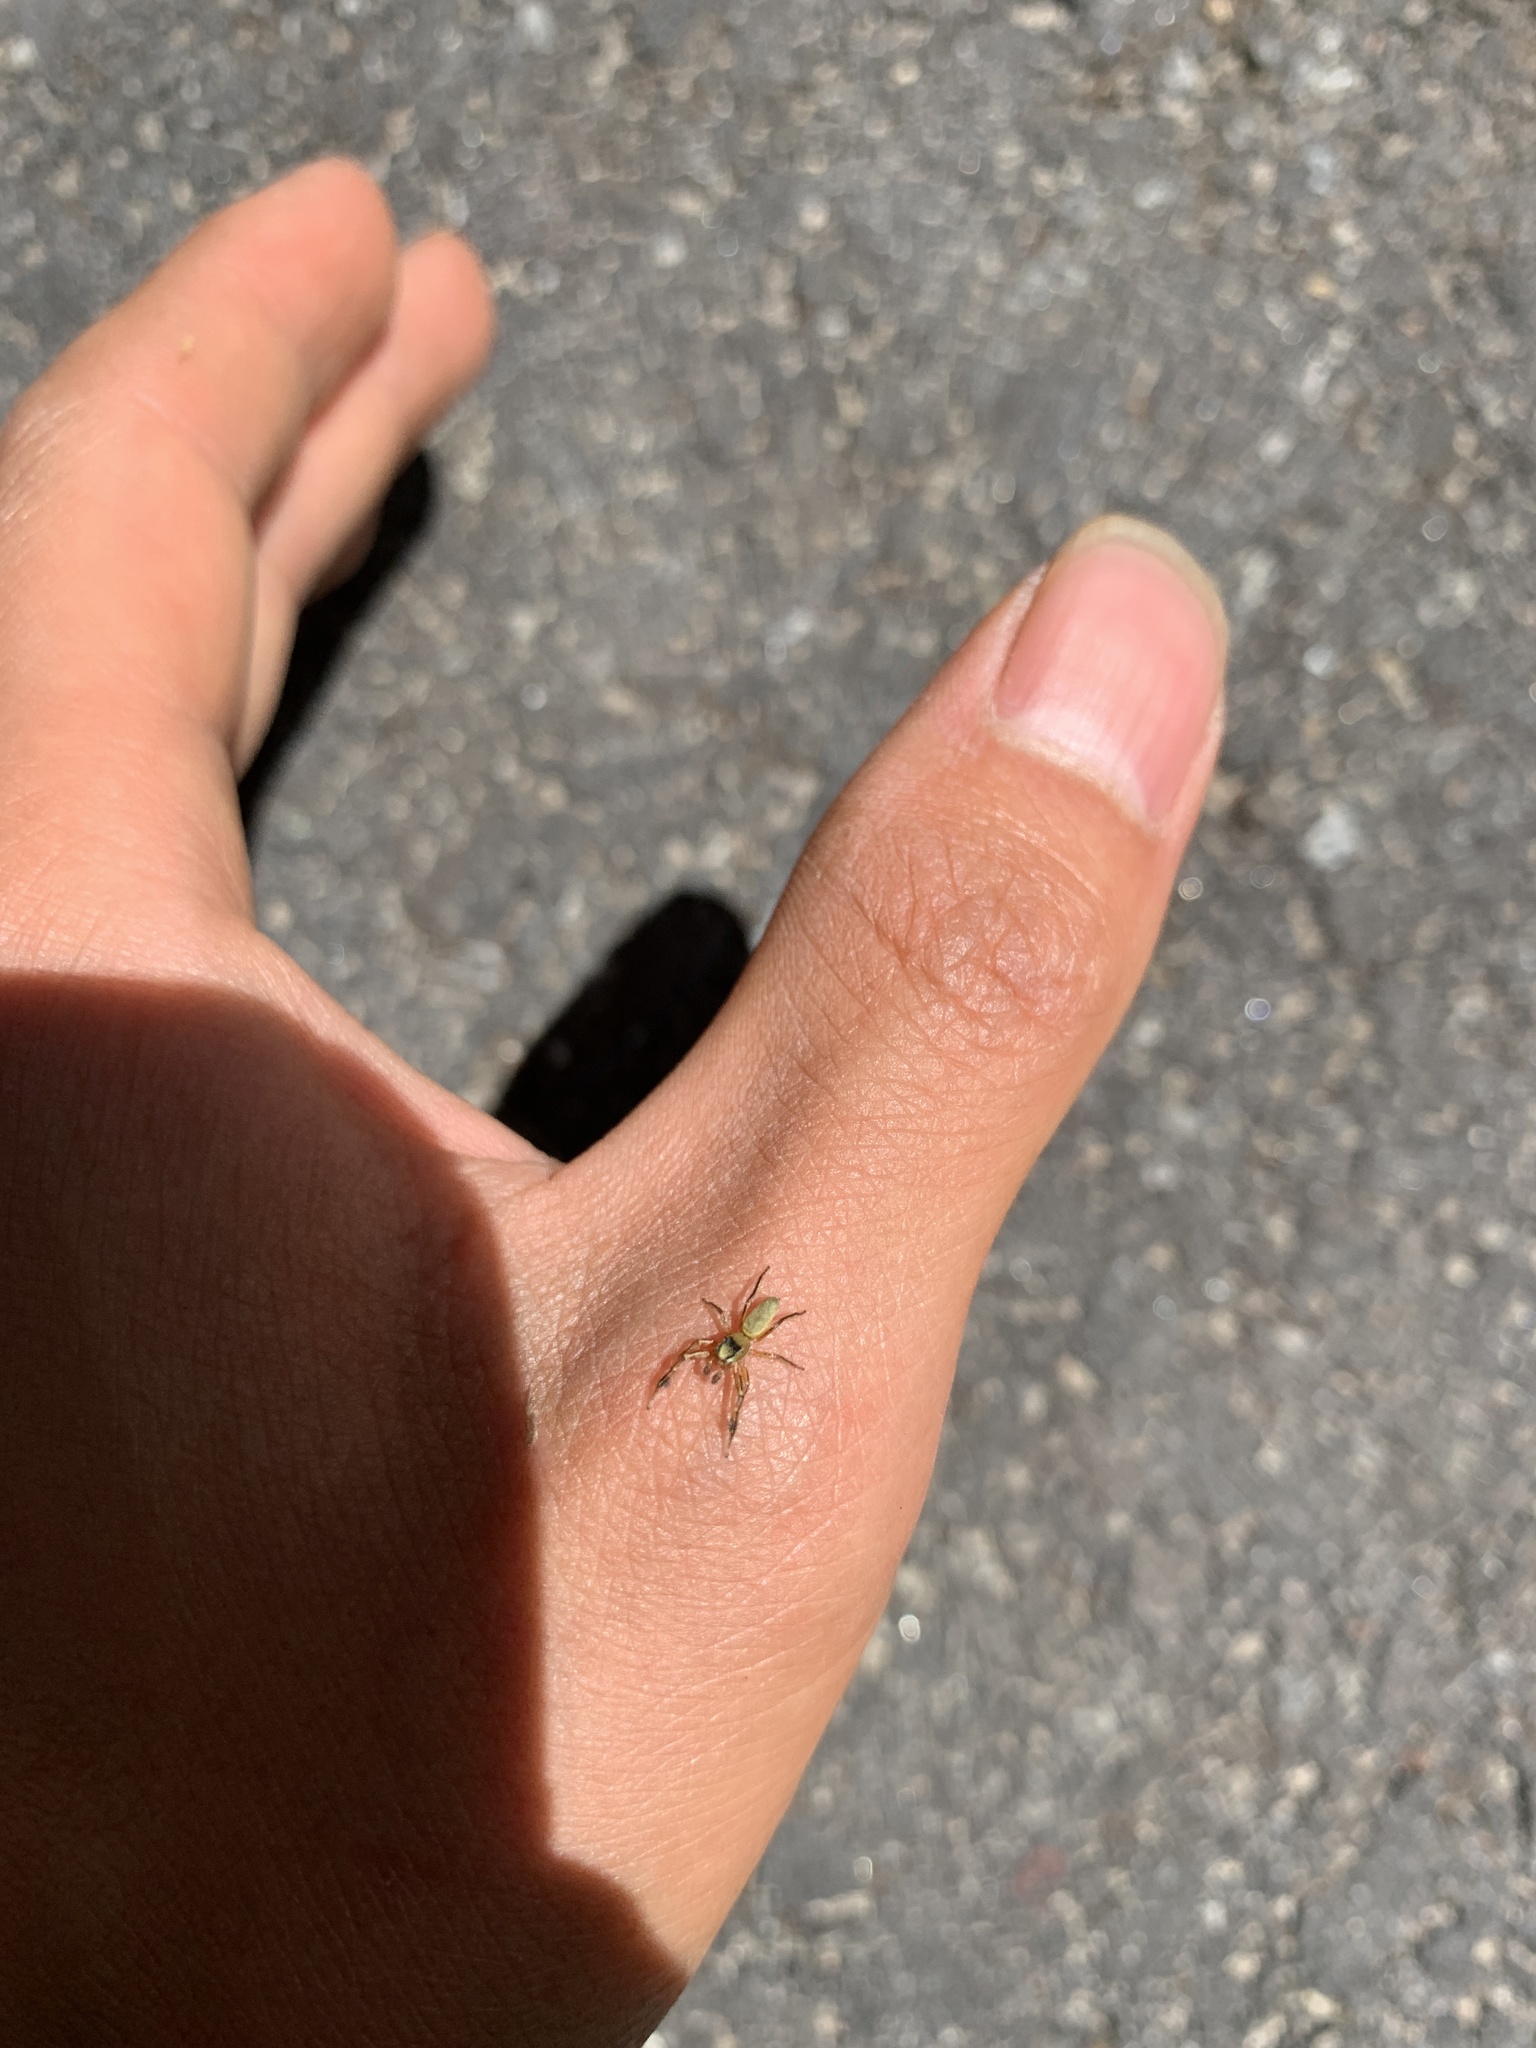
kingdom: Animalia
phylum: Arthropoda
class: Arachnida
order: Araneae
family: Salticidae
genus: Tutelina
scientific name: Tutelina elegans
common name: Thin-spined jumping spider
